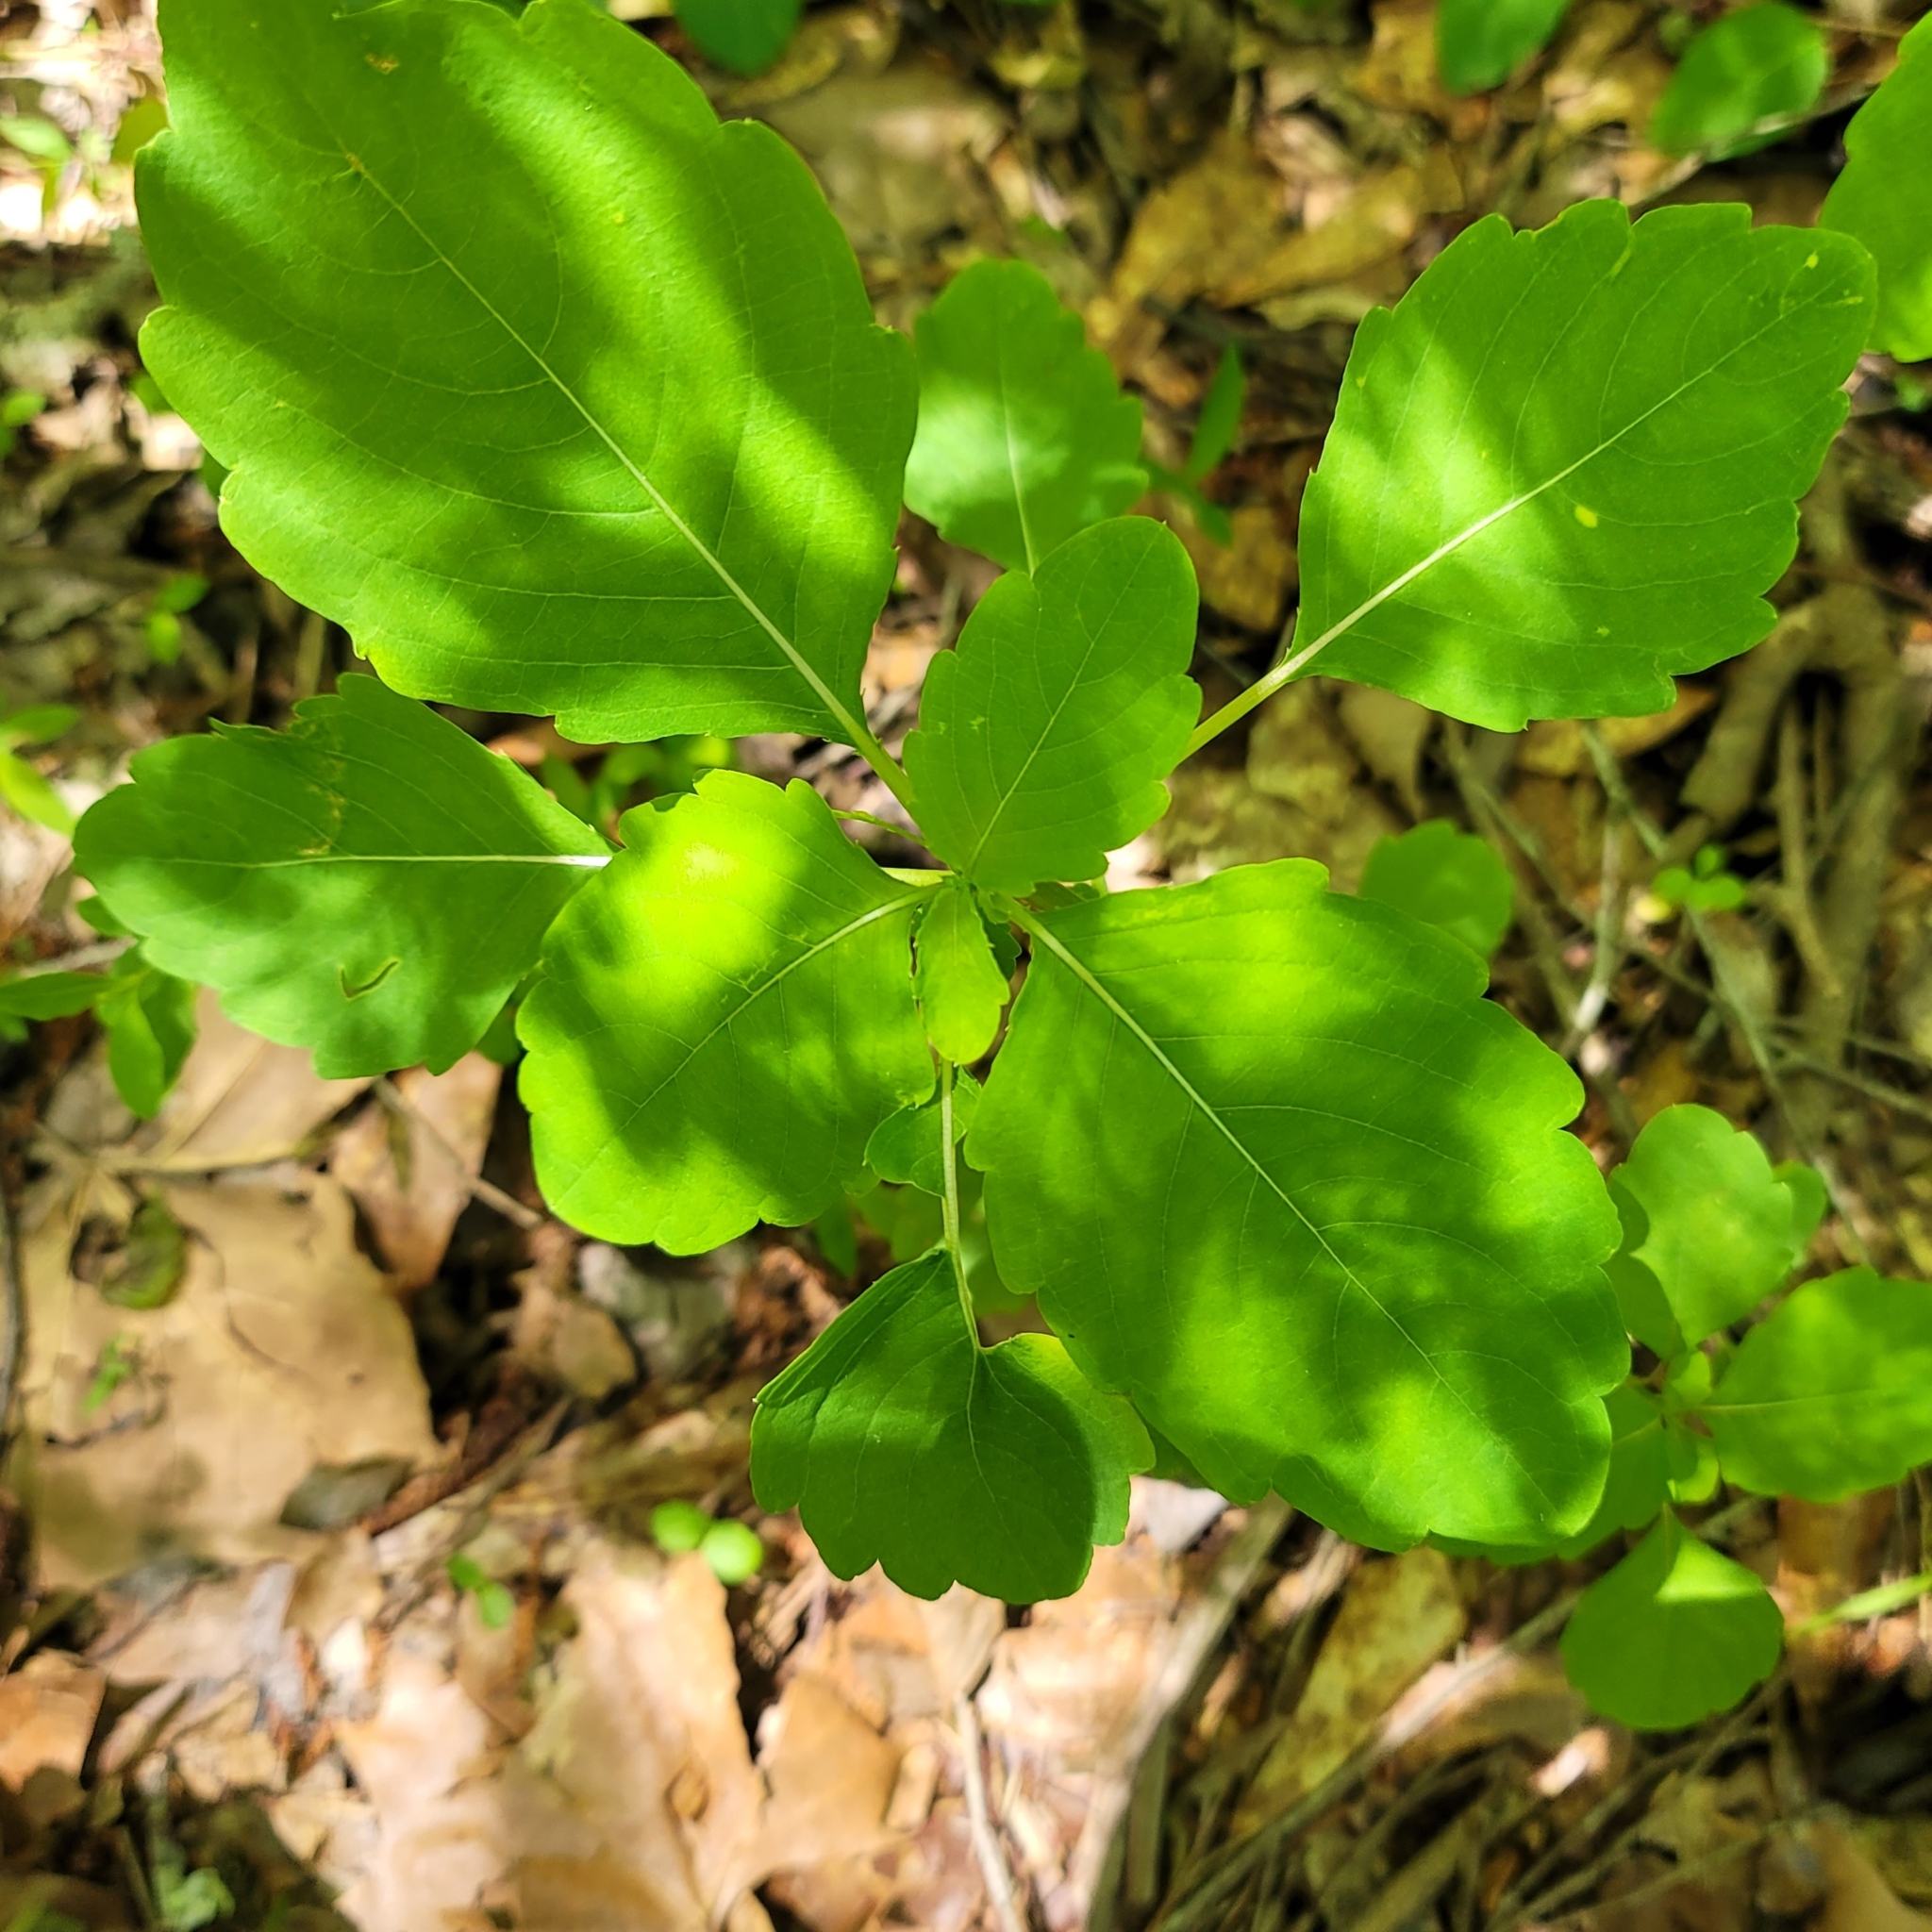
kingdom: Plantae
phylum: Tracheophyta
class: Magnoliopsida
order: Ericales
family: Balsaminaceae
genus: Impatiens
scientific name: Impatiens capensis
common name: Orange balsam
